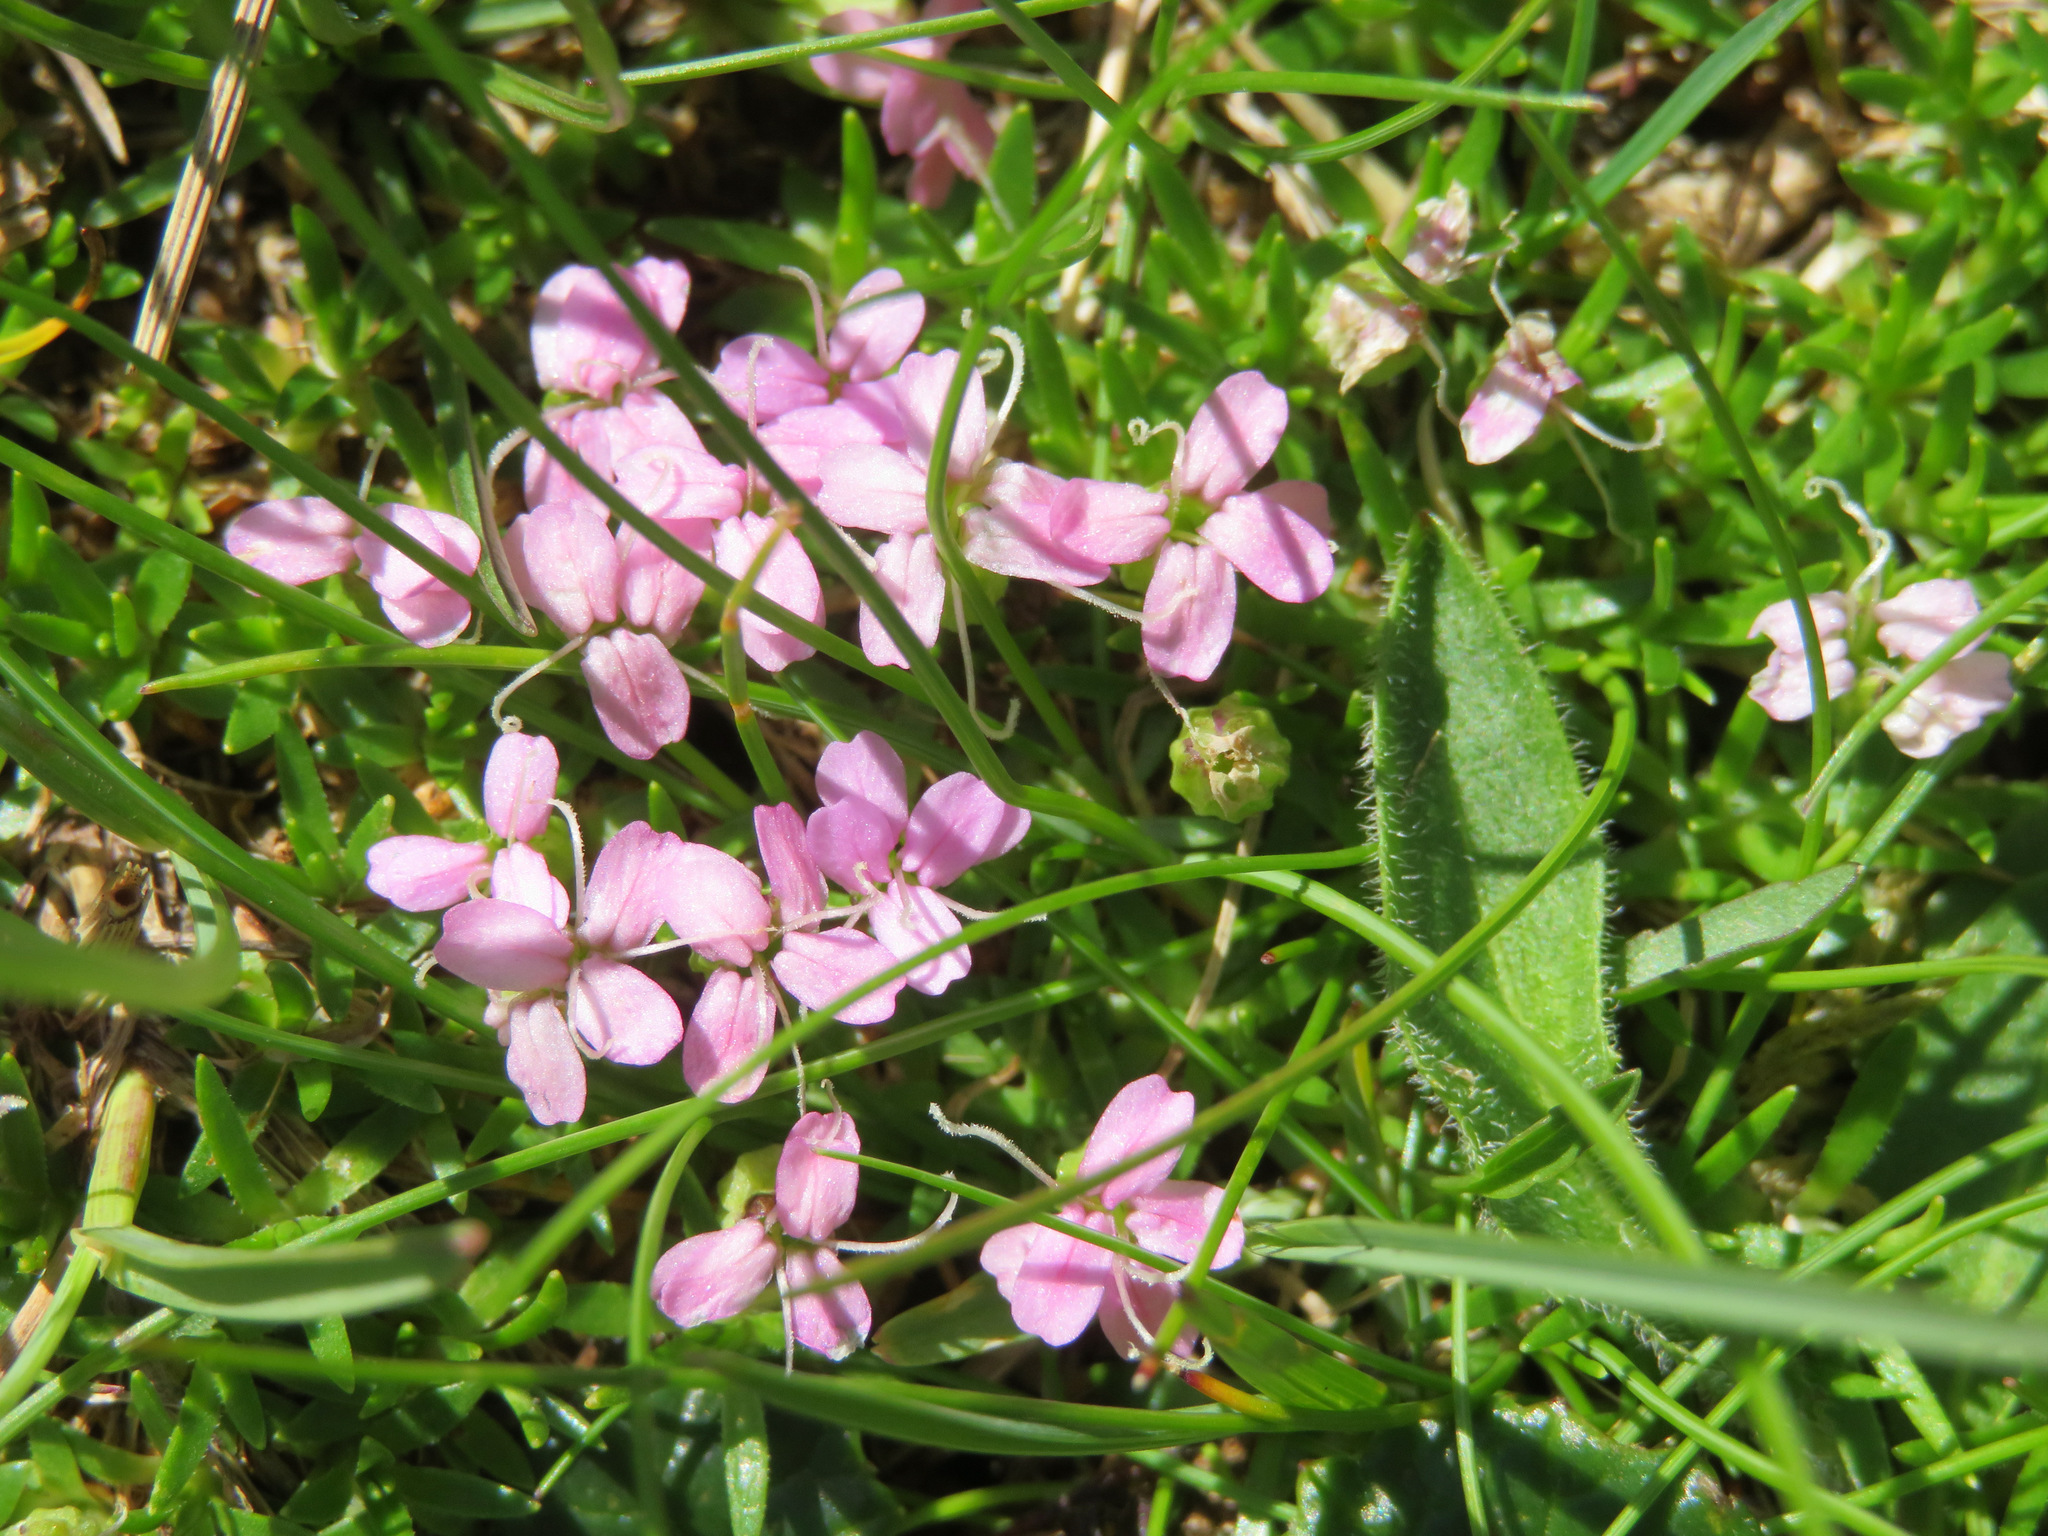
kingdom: Plantae
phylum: Tracheophyta
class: Magnoliopsida
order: Caryophyllales
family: Caryophyllaceae
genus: Silene
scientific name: Silene acaulis
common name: Moss campion
